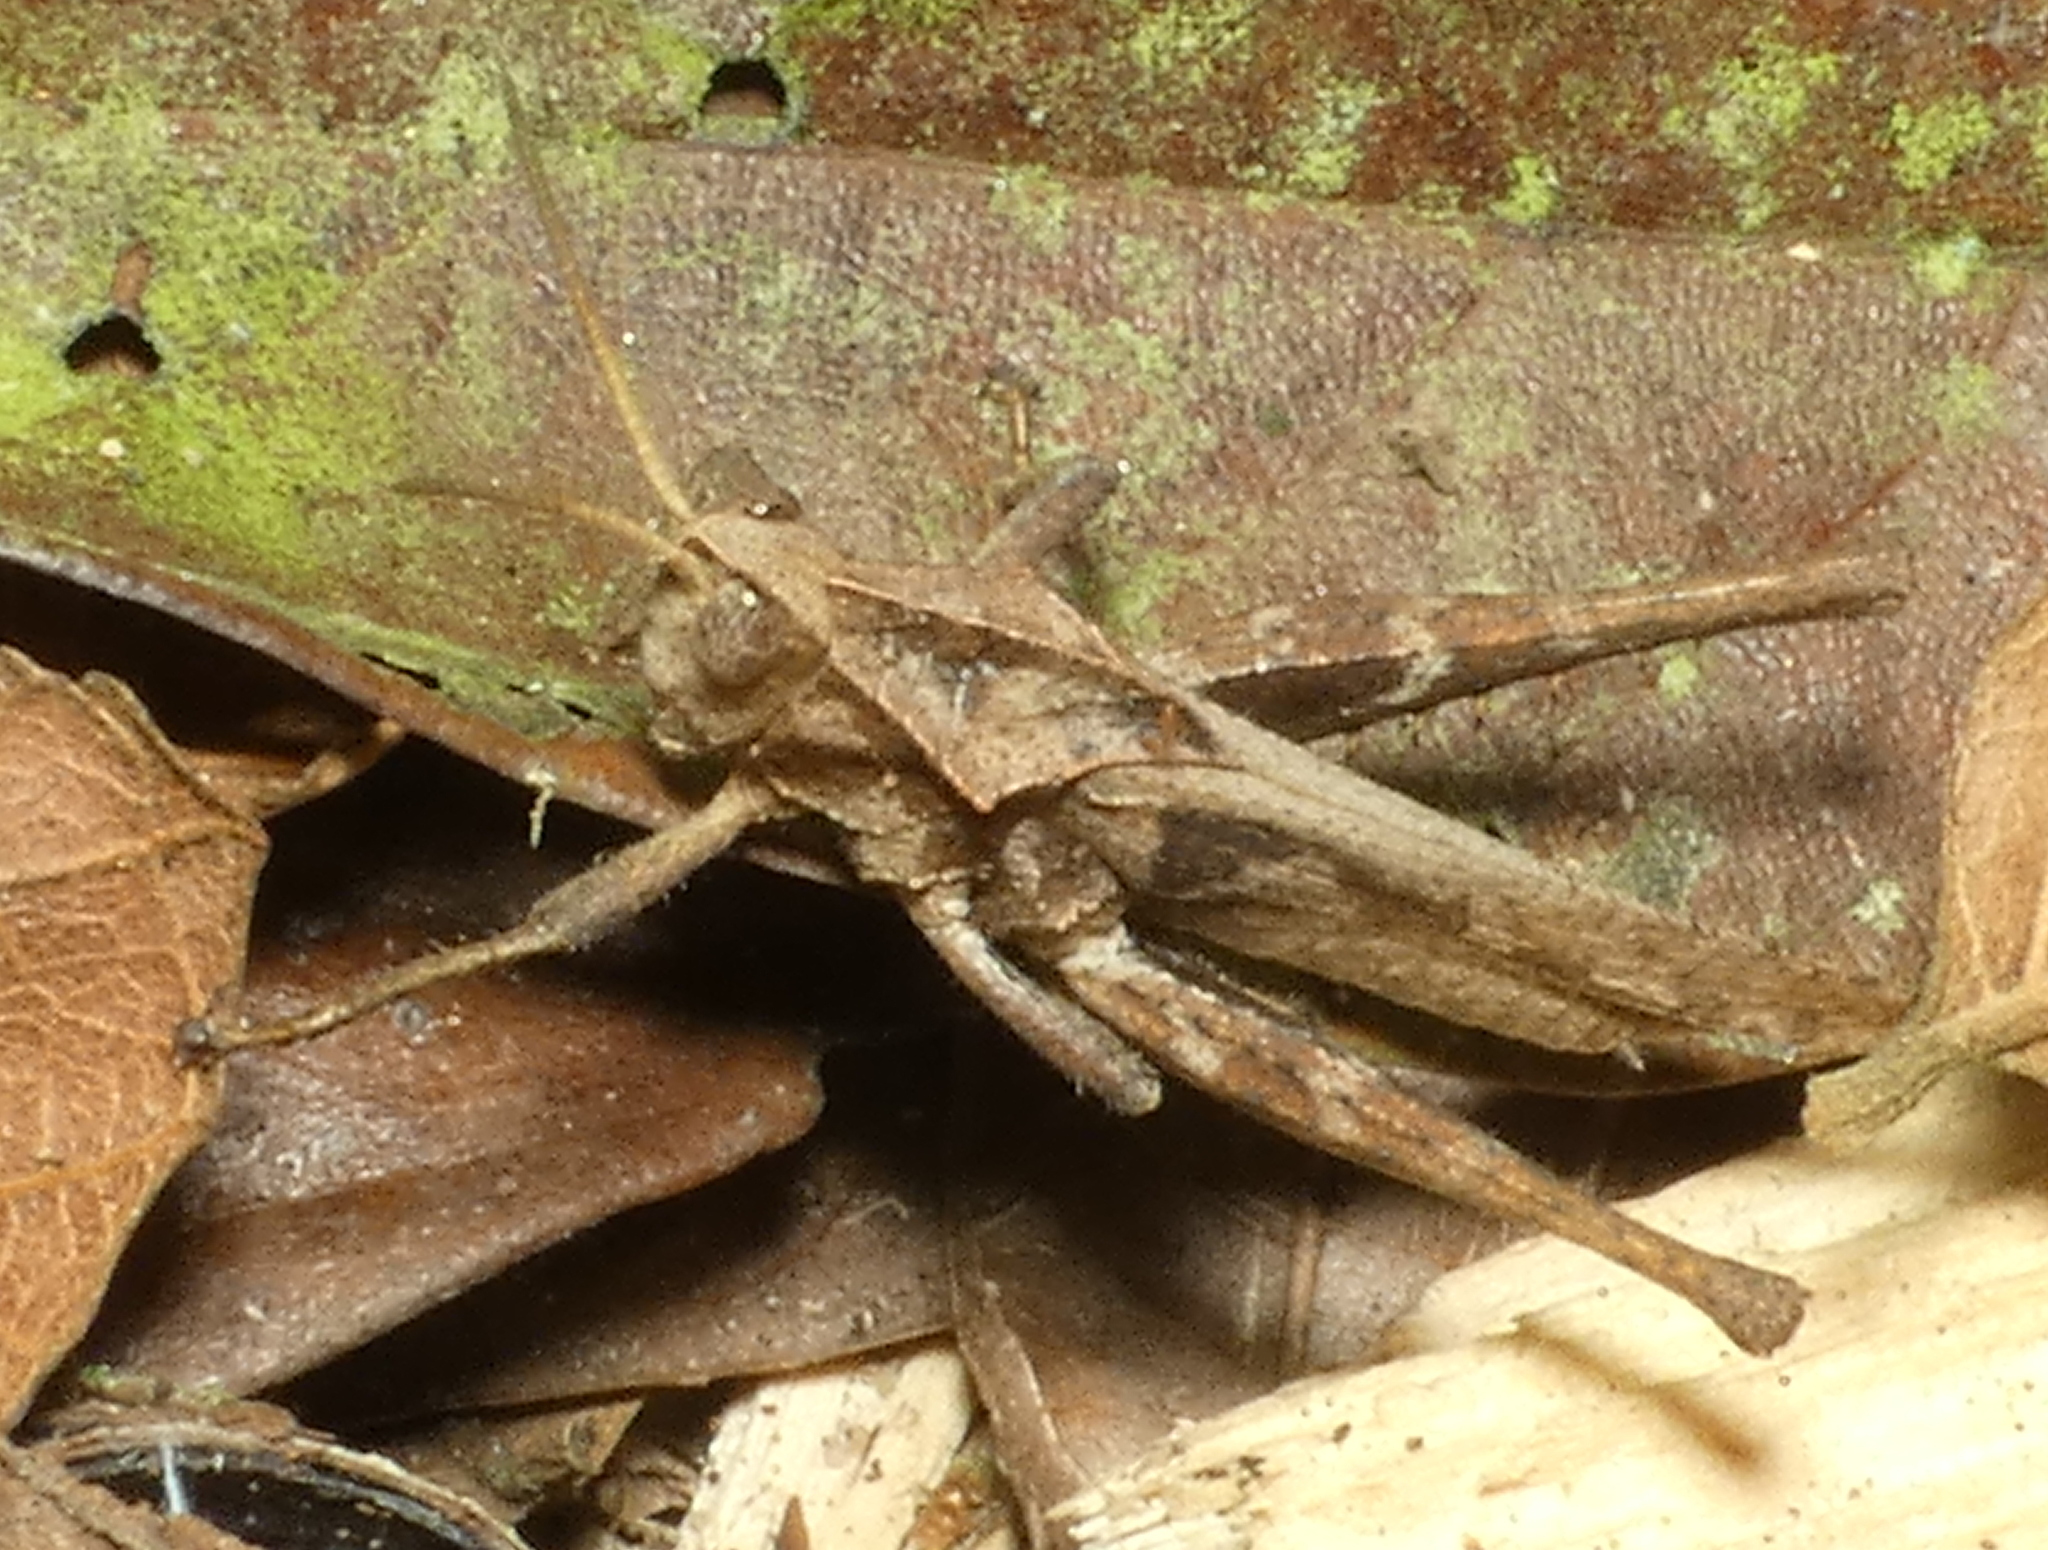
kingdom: Animalia
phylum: Arthropoda
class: Insecta
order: Orthoptera
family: Romaleidae
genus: Xyleus
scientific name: Xyleus discoideus
